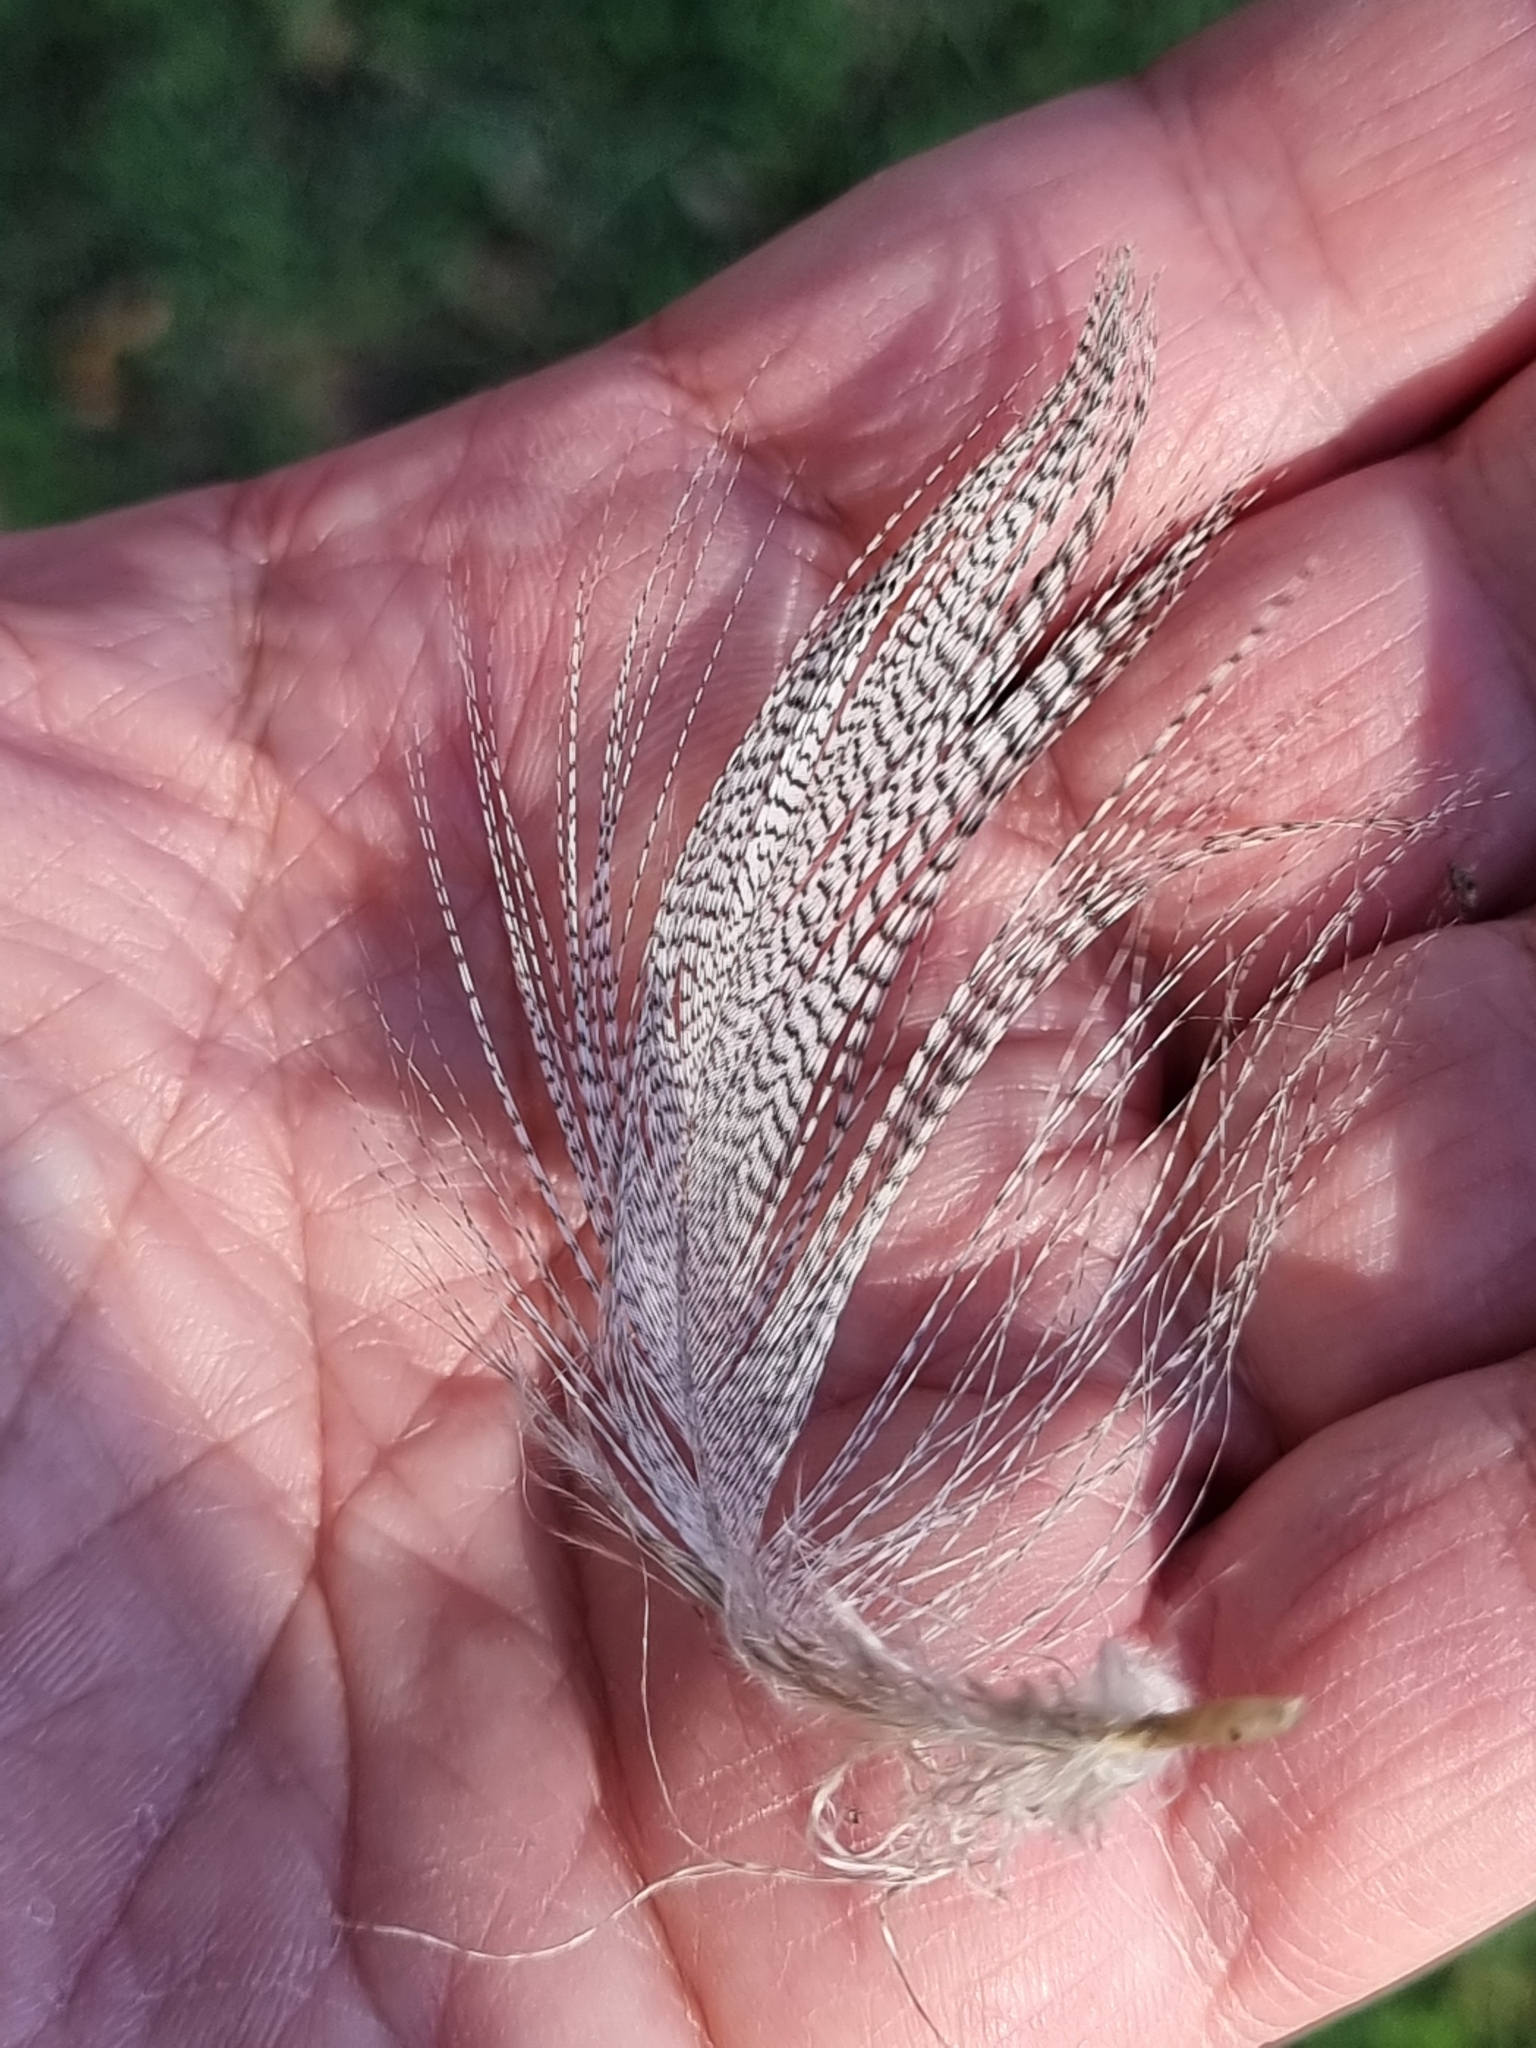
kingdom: Animalia
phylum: Chordata
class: Aves
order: Anseriformes
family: Anatidae
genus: Chenonetta
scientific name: Chenonetta jubata
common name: Maned duck
